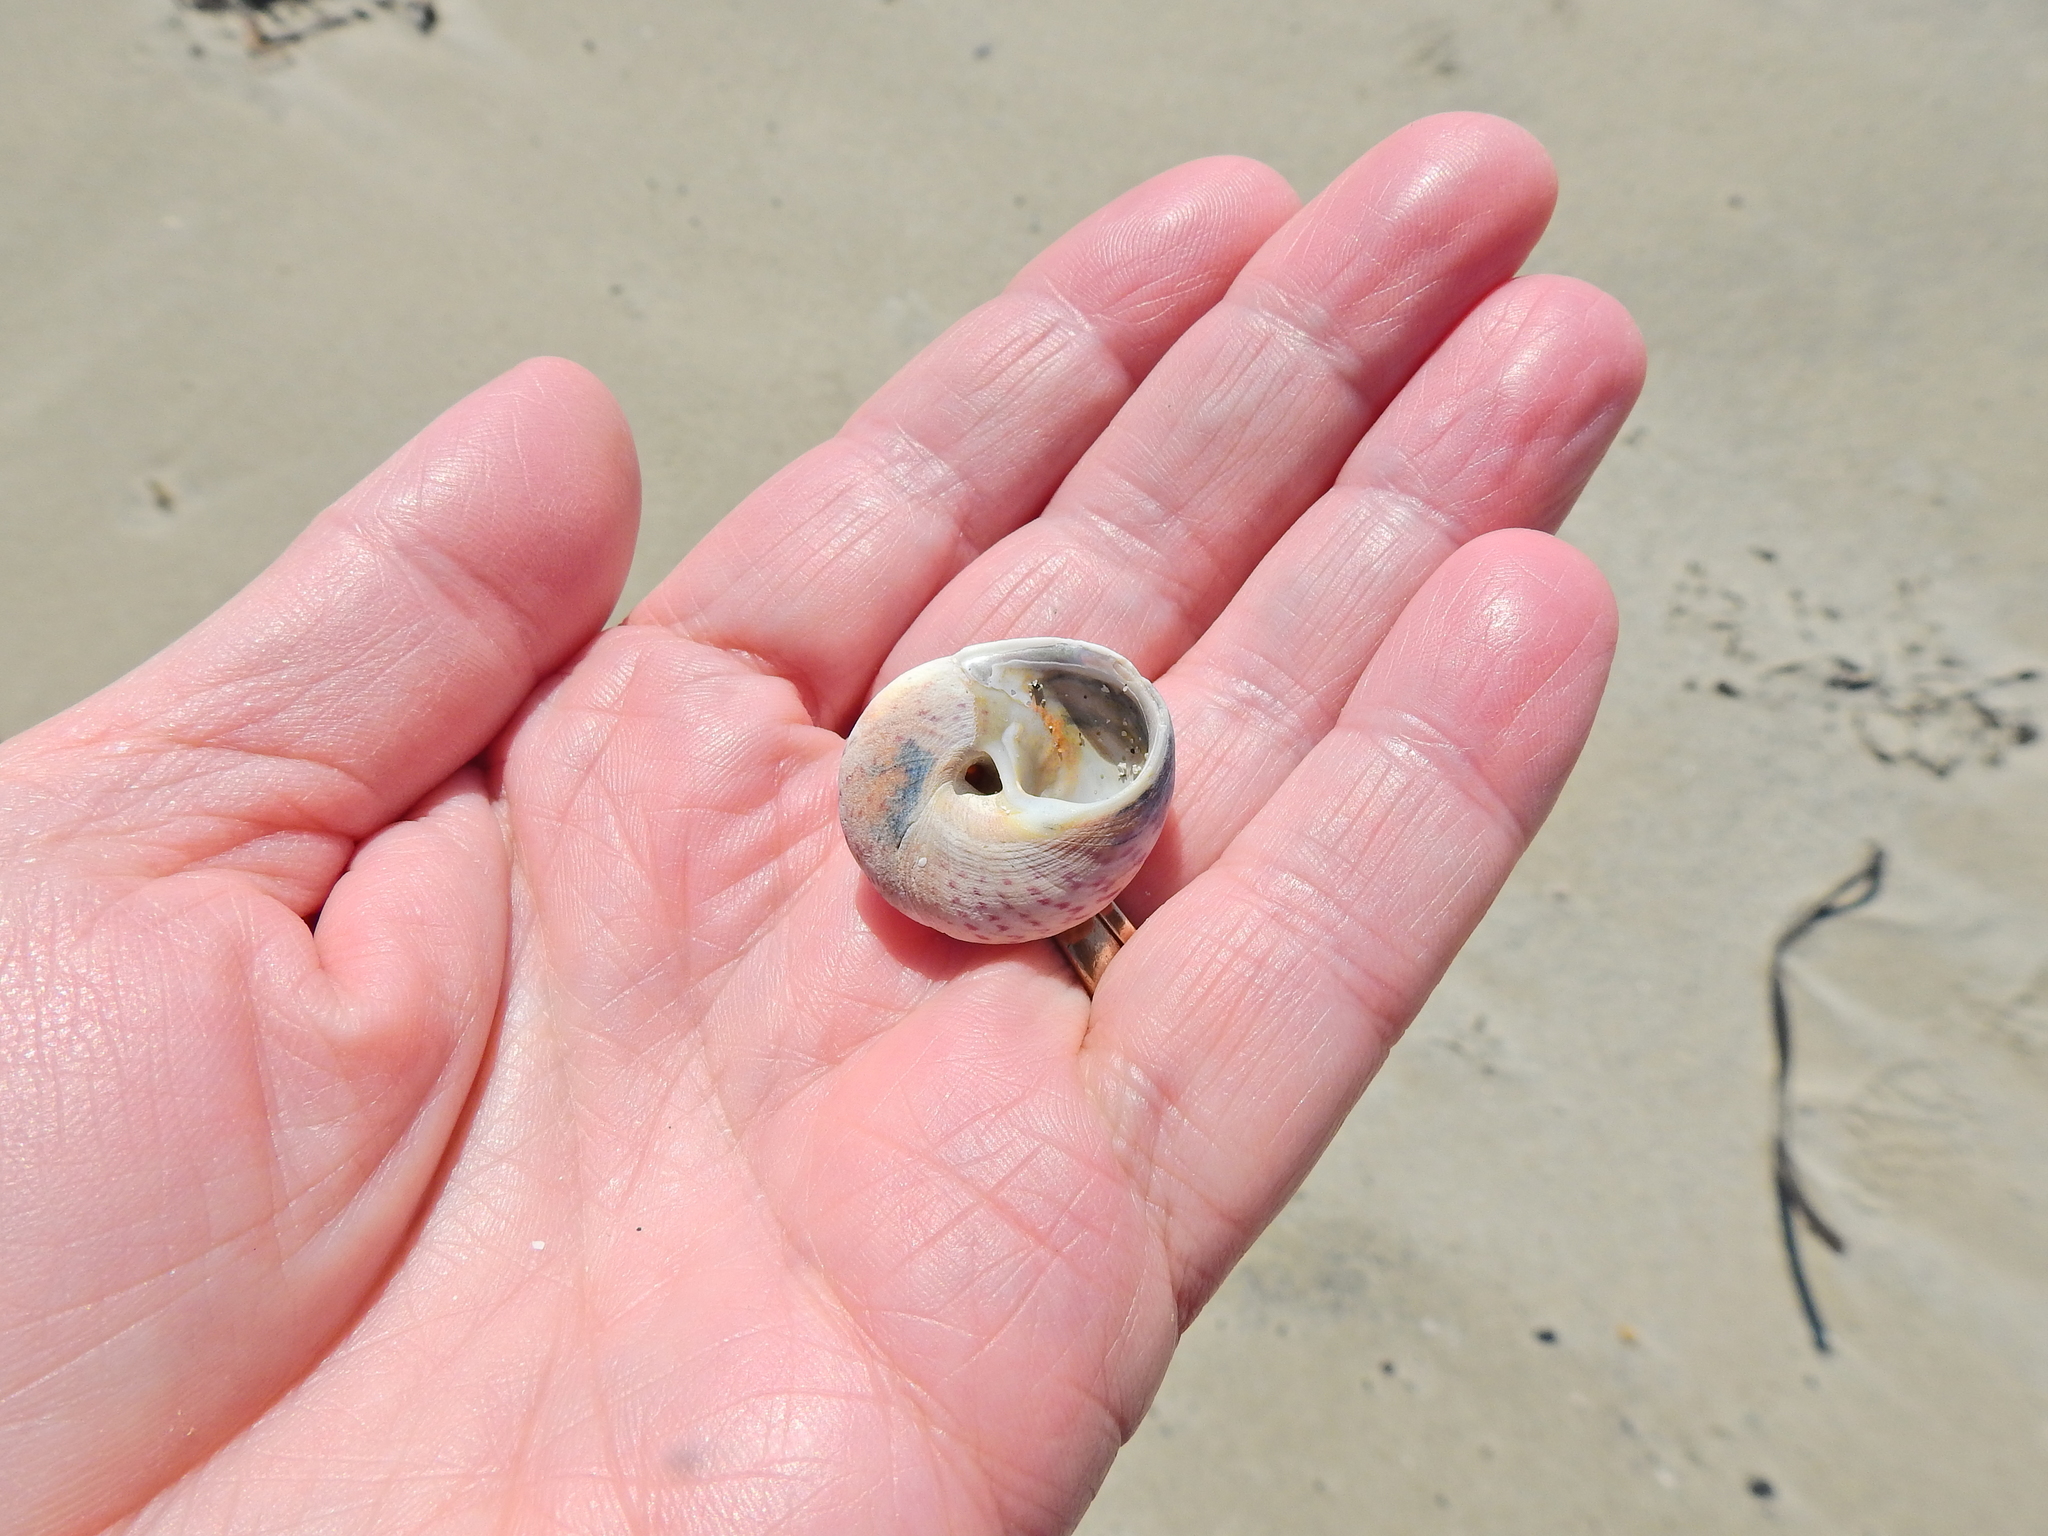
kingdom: Animalia
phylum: Mollusca
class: Gastropoda
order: Trochida
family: Trochidae
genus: Gibbula
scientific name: Gibbula magus
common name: Turban top shell
